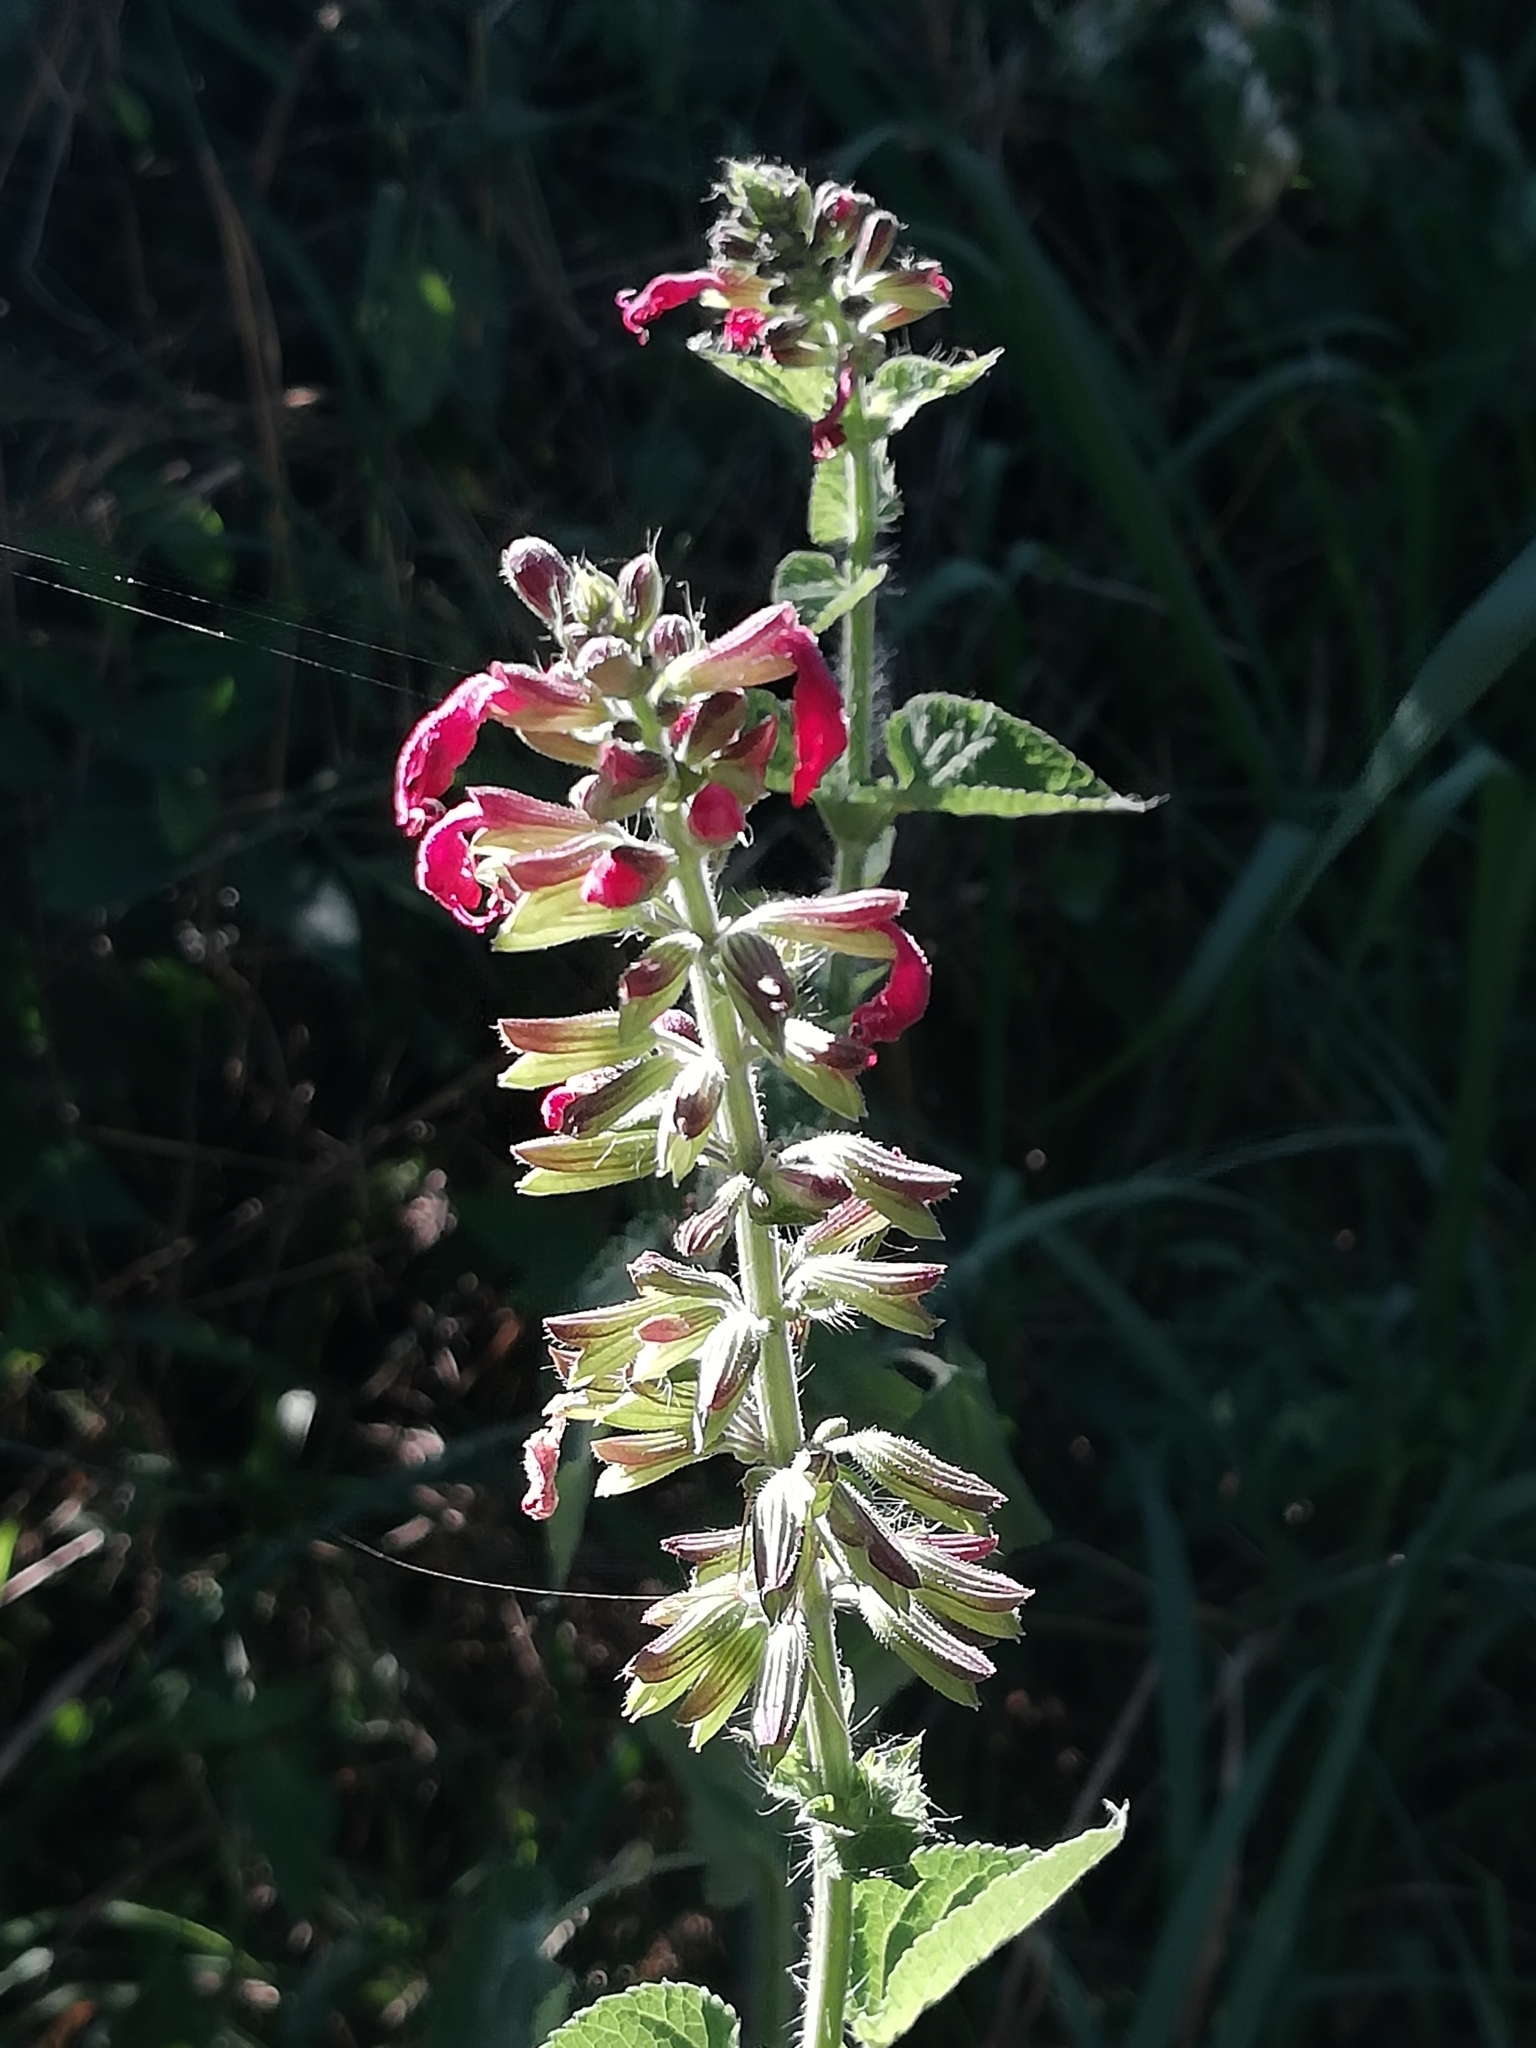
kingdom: Plantae
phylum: Tracheophyta
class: Magnoliopsida
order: Lamiales
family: Lamiaceae
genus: Salvia
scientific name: Salvia coccinea
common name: Blood sage
